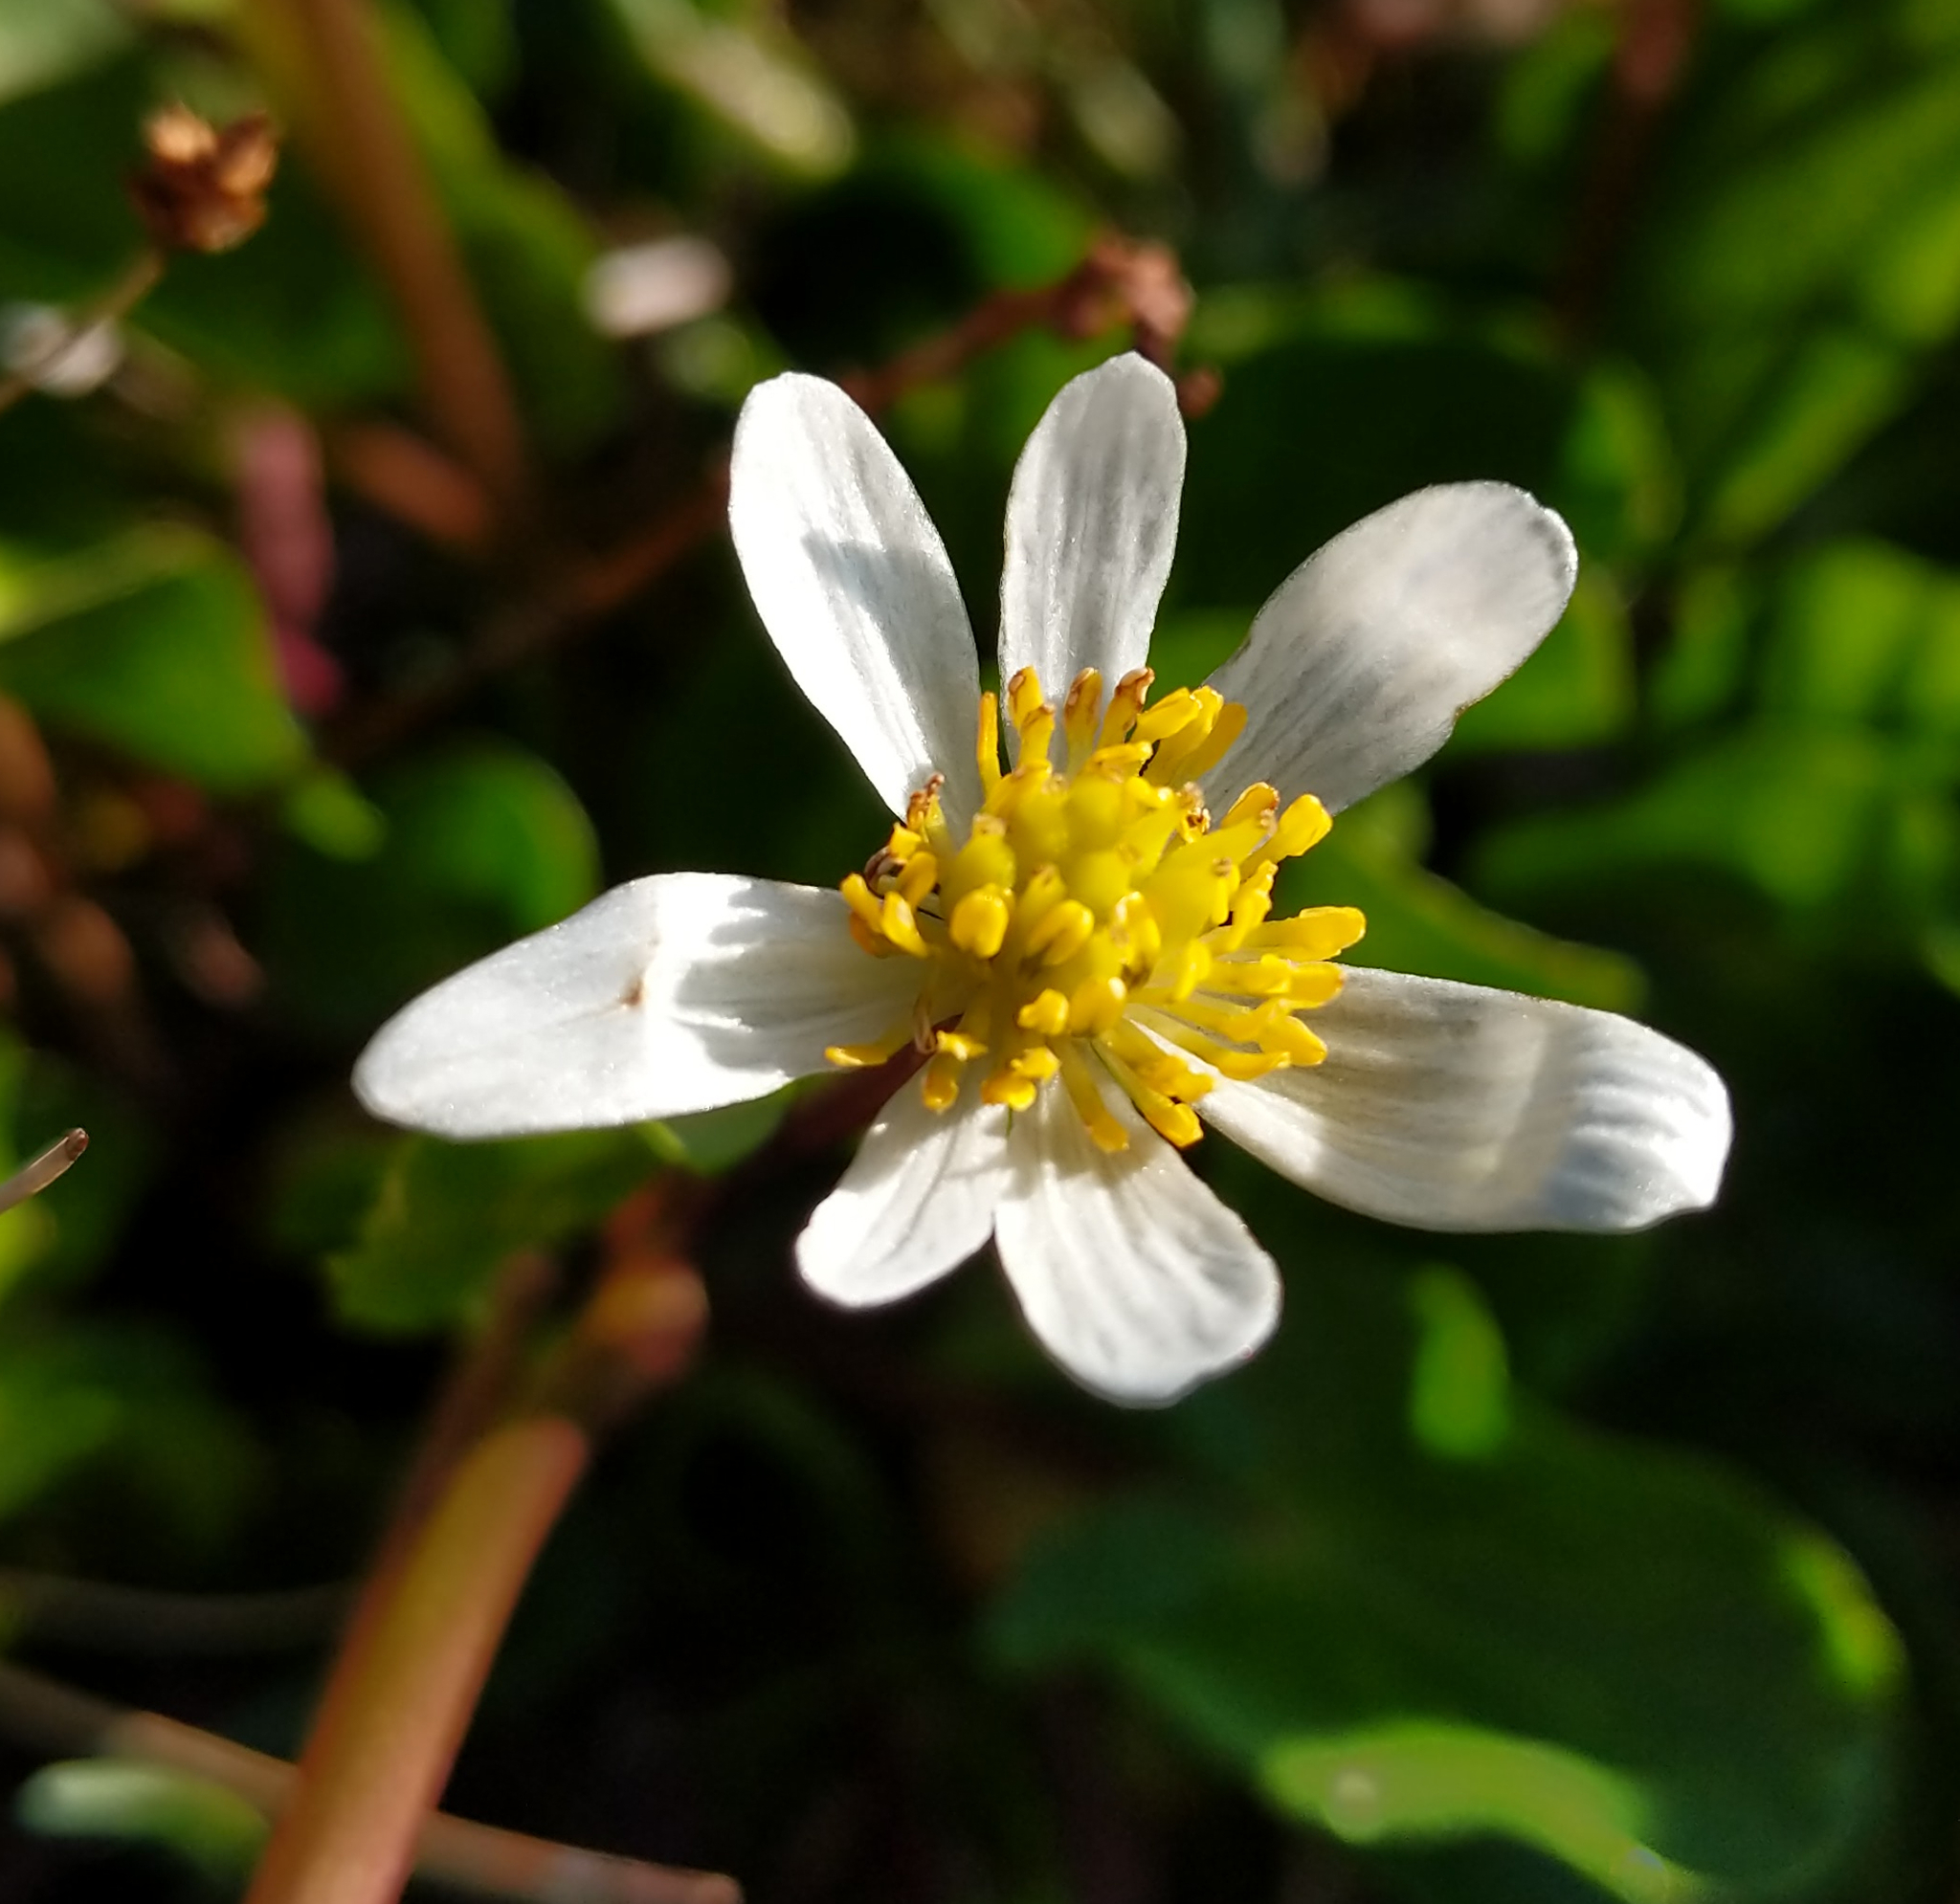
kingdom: Plantae
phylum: Tracheophyta
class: Magnoliopsida
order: Ranunculales
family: Ranunculaceae
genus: Caltha
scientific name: Caltha leptosepala
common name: Elkslip
